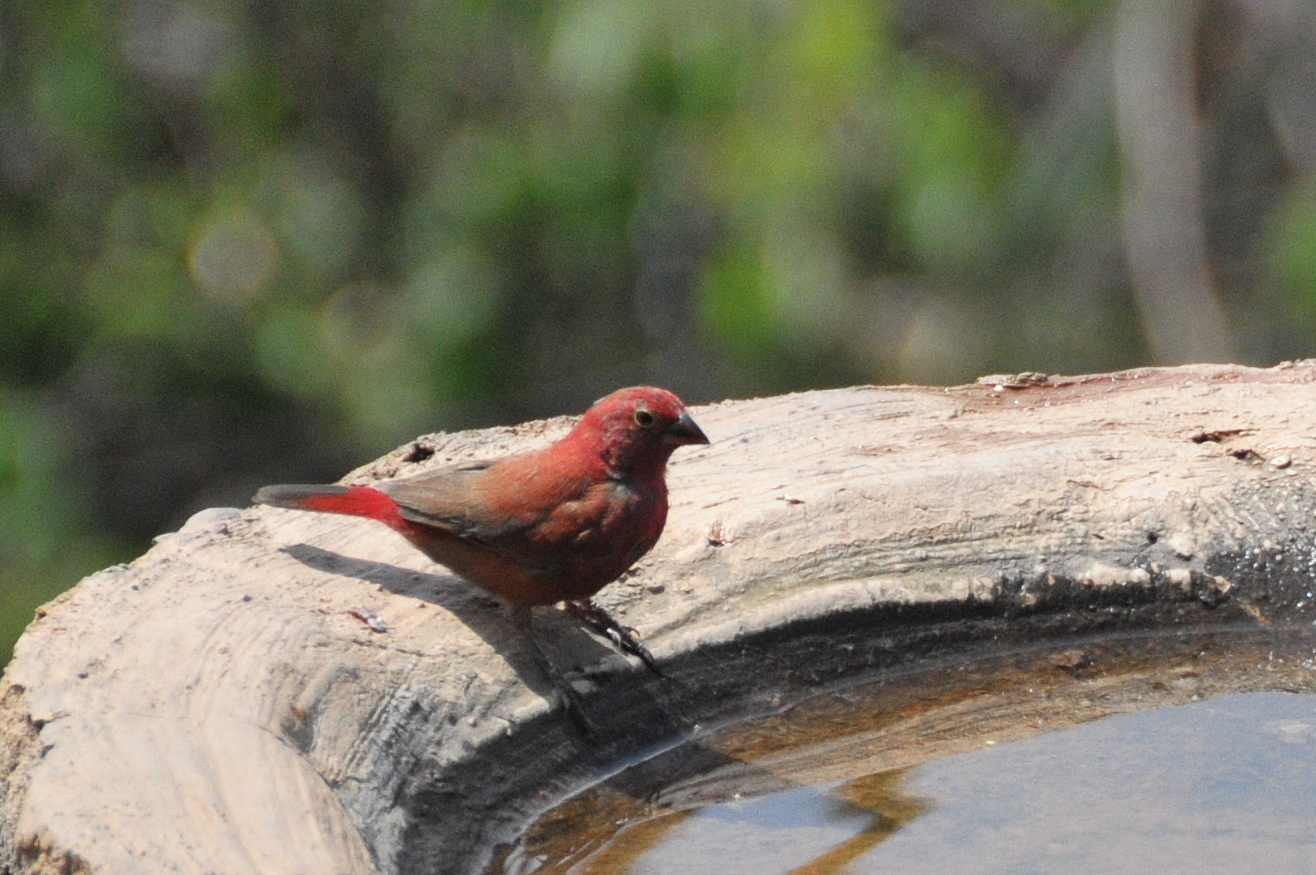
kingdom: Animalia
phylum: Chordata
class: Aves
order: Passeriformes
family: Estrildidae
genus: Lagonosticta
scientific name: Lagonosticta senegala
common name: Red-billed firefinch
